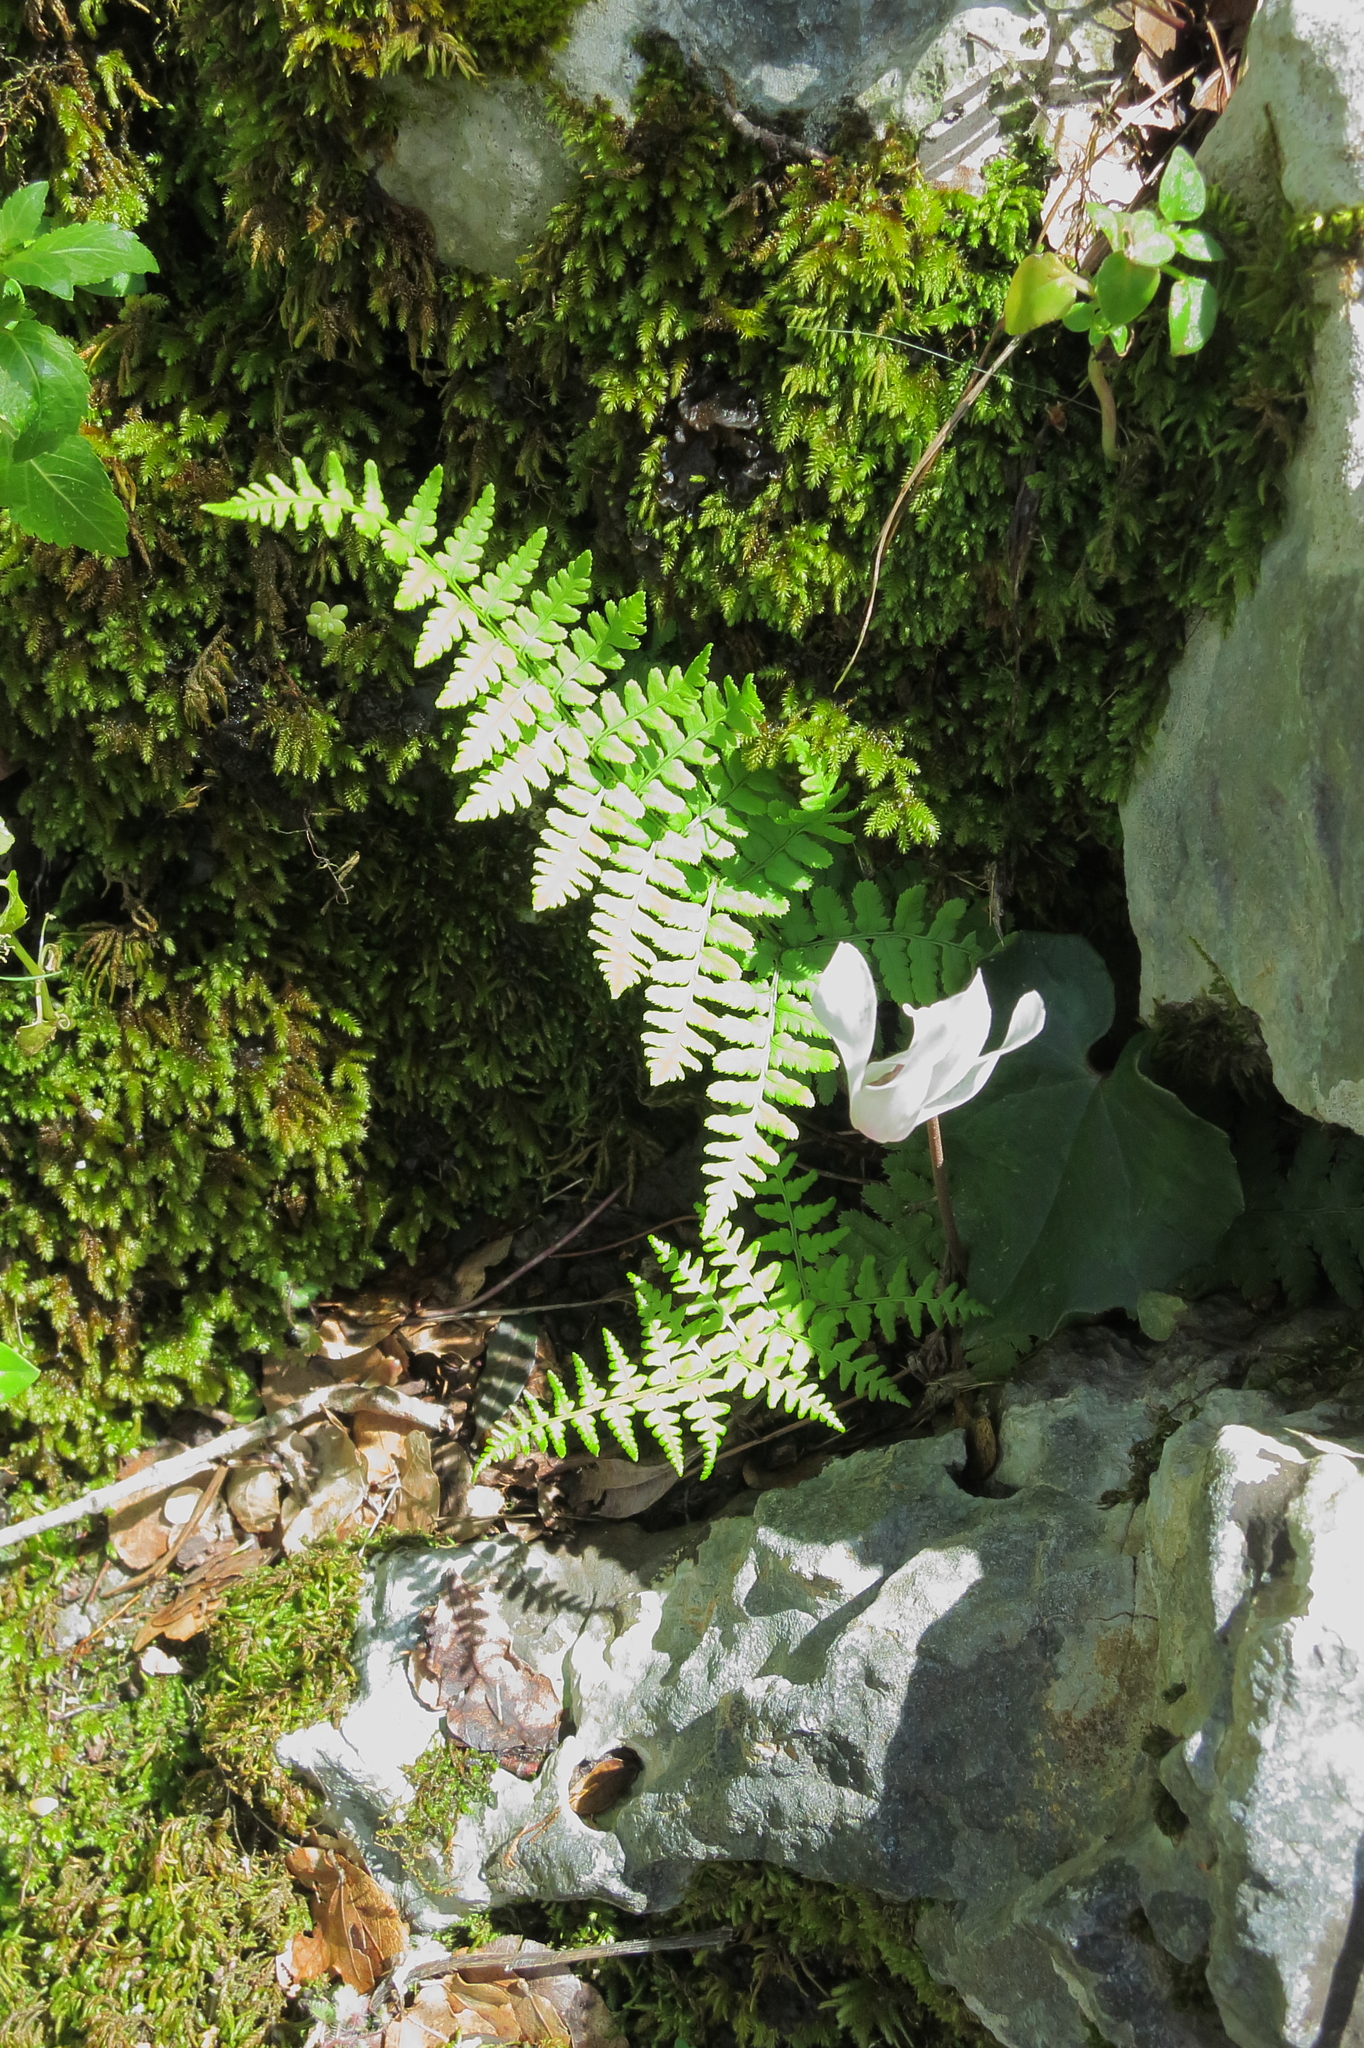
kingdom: Plantae
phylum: Tracheophyta
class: Polypodiopsida
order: Polypodiales
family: Dryopteridaceae
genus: Dryopteris
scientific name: Dryopteris pallida
